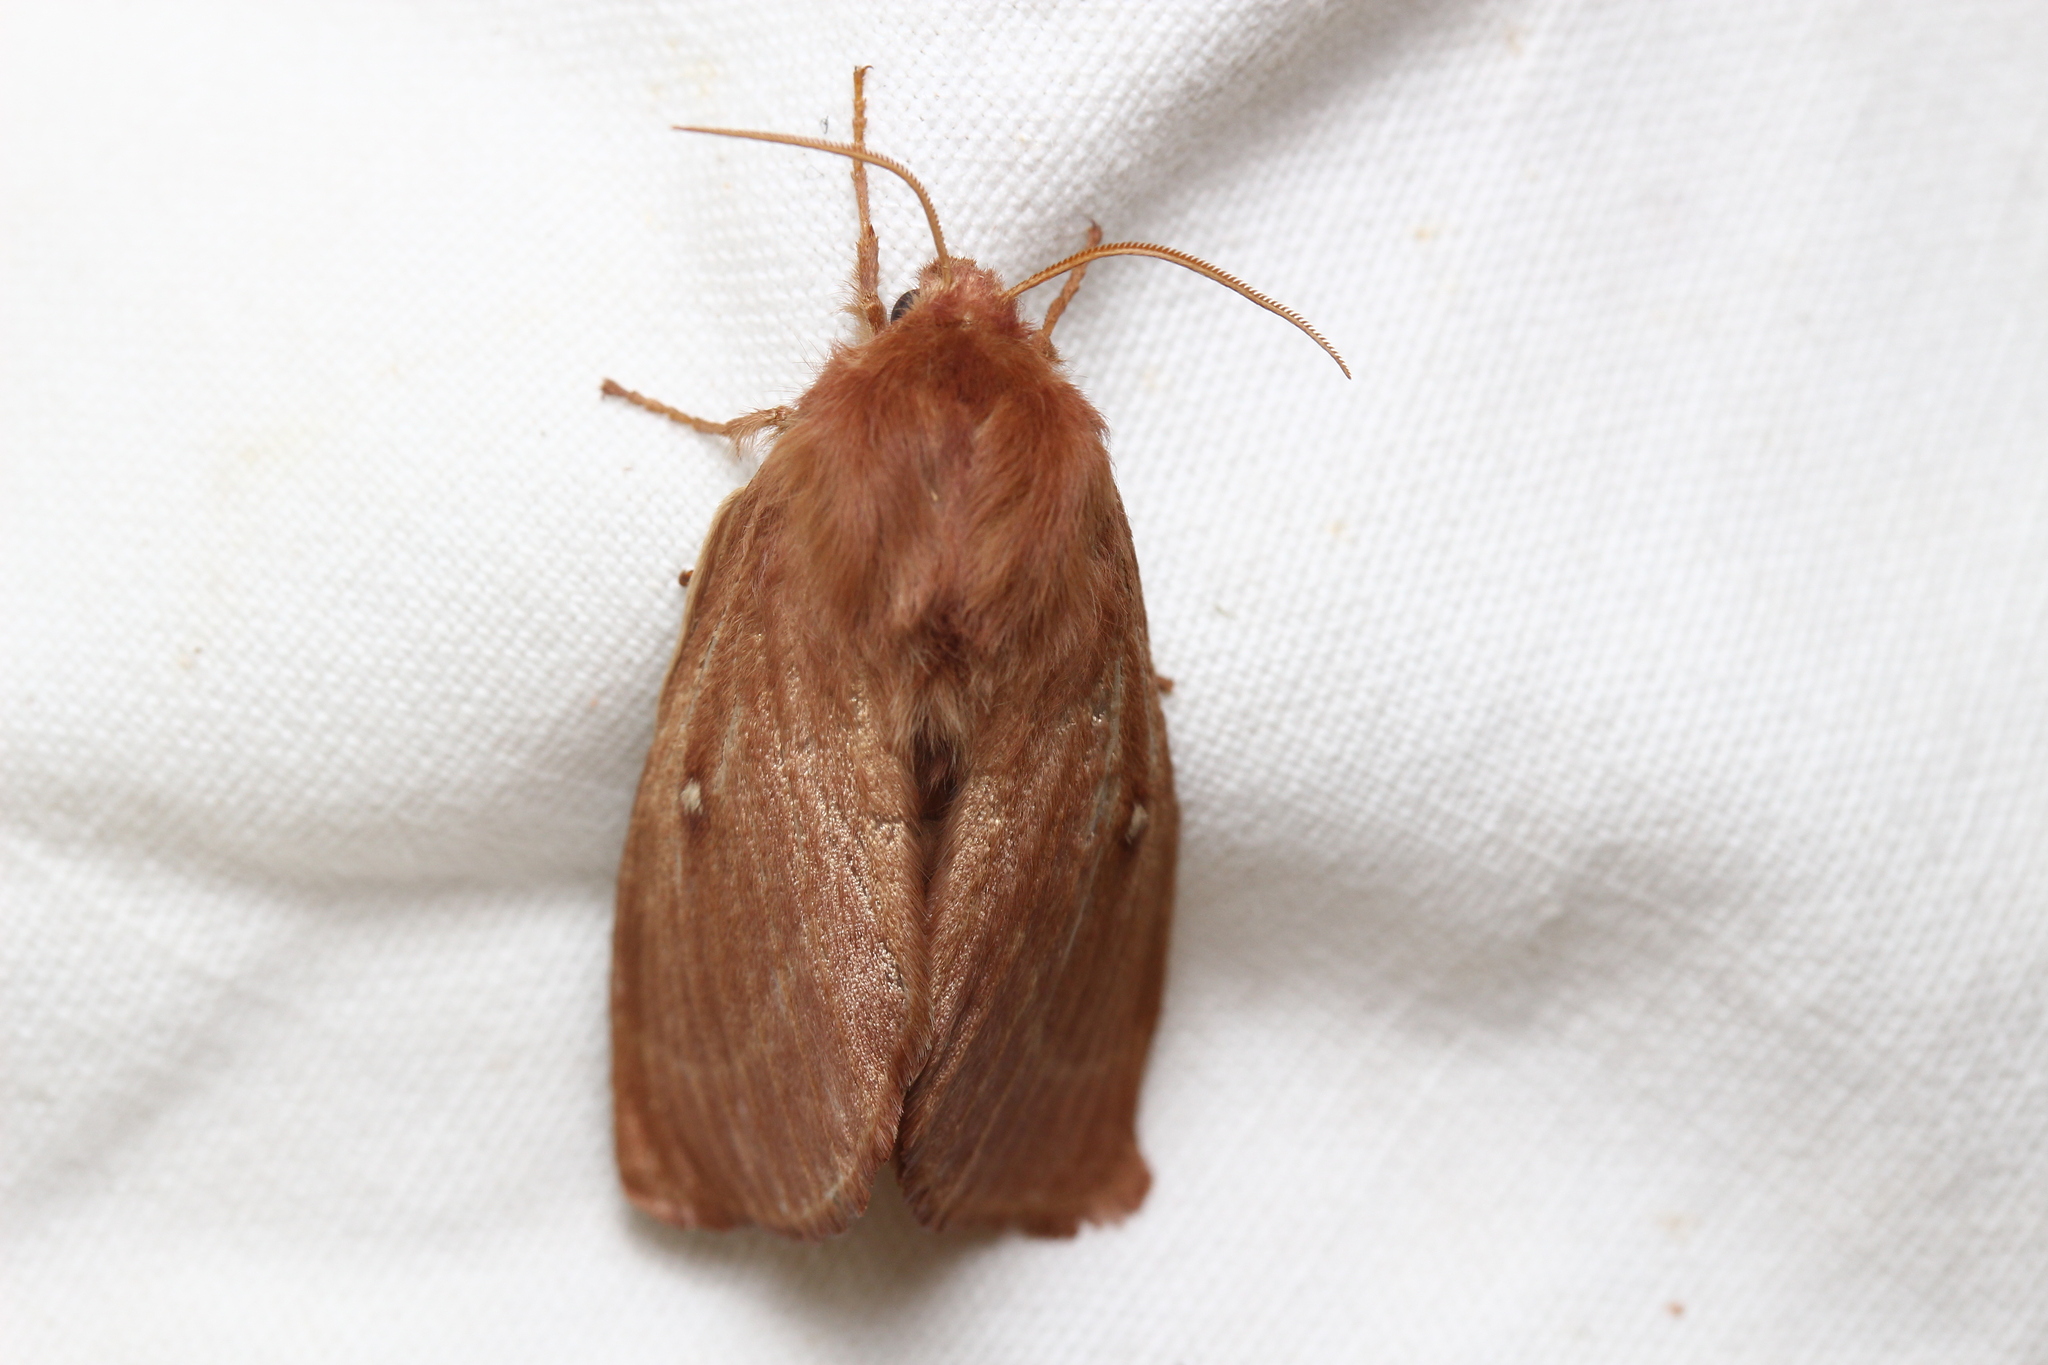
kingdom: Animalia
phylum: Arthropoda
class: Insecta
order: Lepidoptera
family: Lasiocampidae
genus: Lasiocampa
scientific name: Lasiocampa trifolii
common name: Grass eggar
